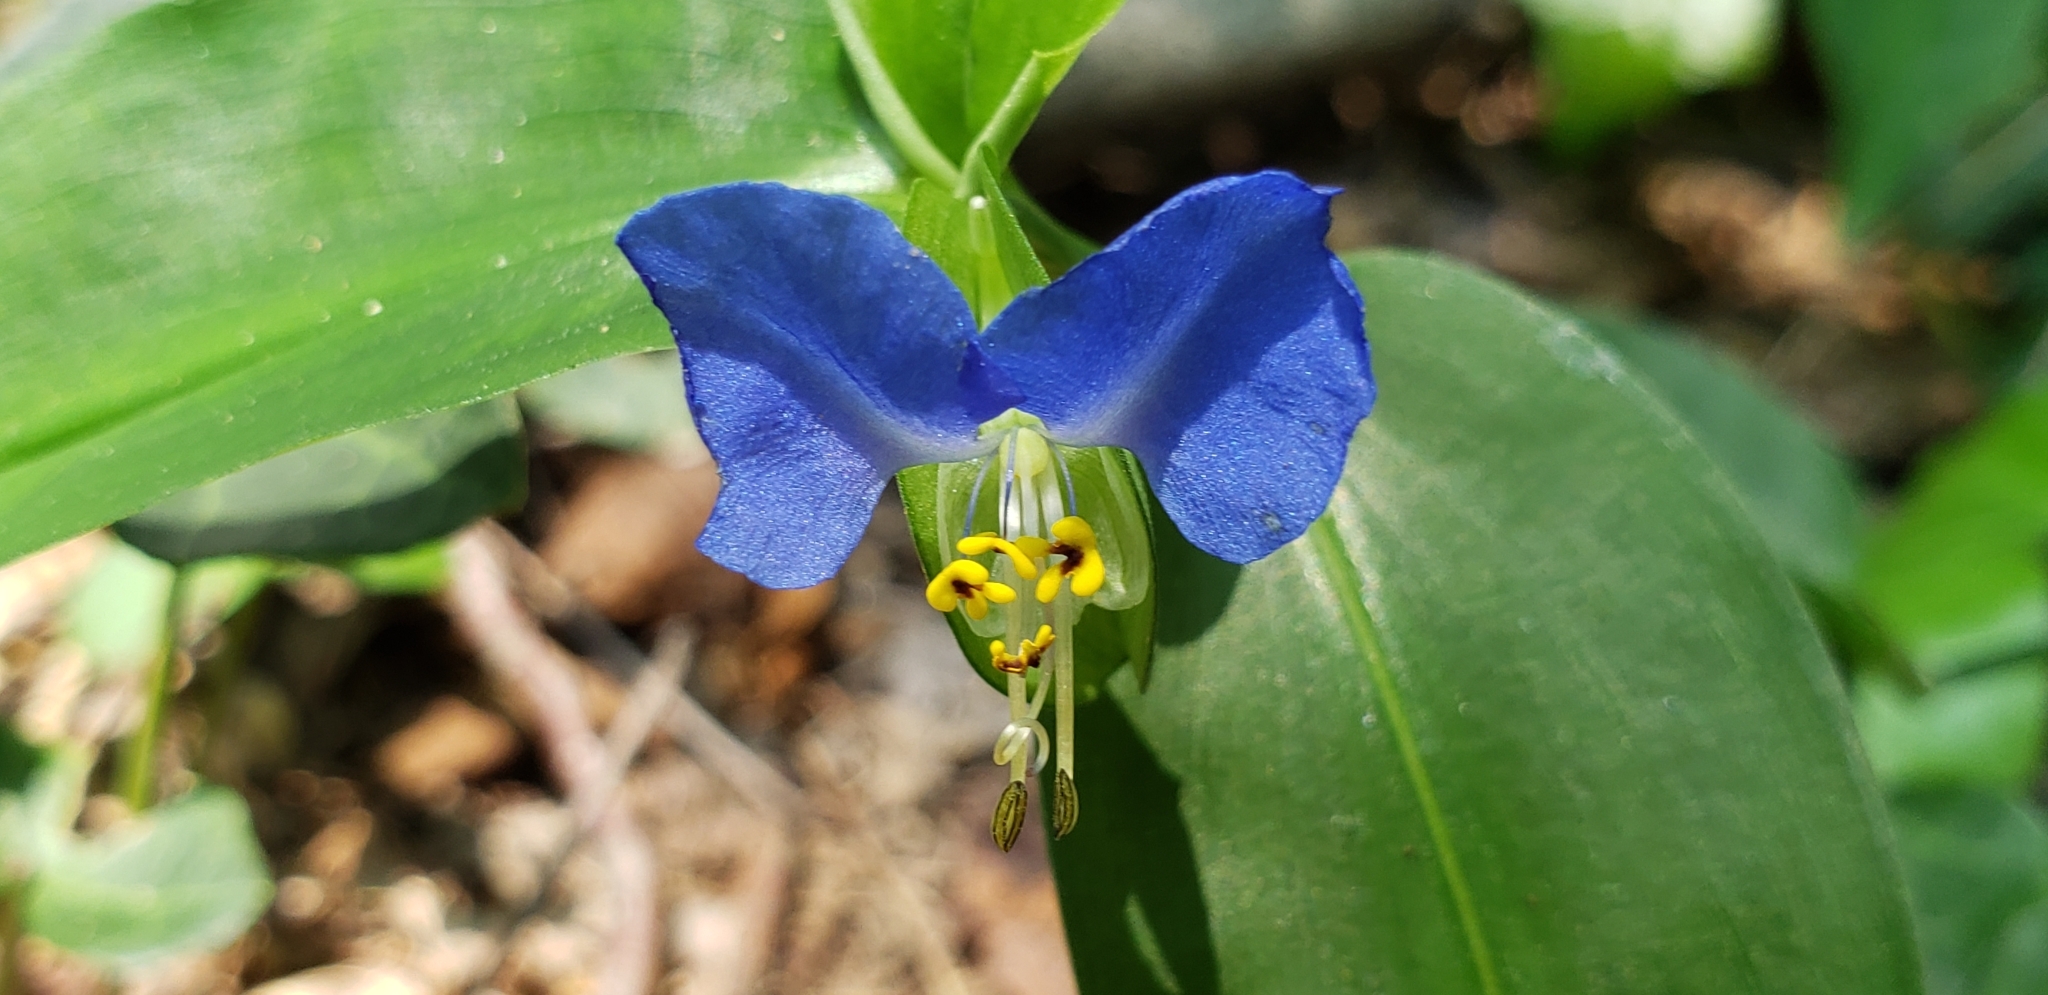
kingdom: Plantae
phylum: Tracheophyta
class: Liliopsida
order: Commelinales
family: Commelinaceae
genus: Commelina
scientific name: Commelina communis
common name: Asiatic dayflower
